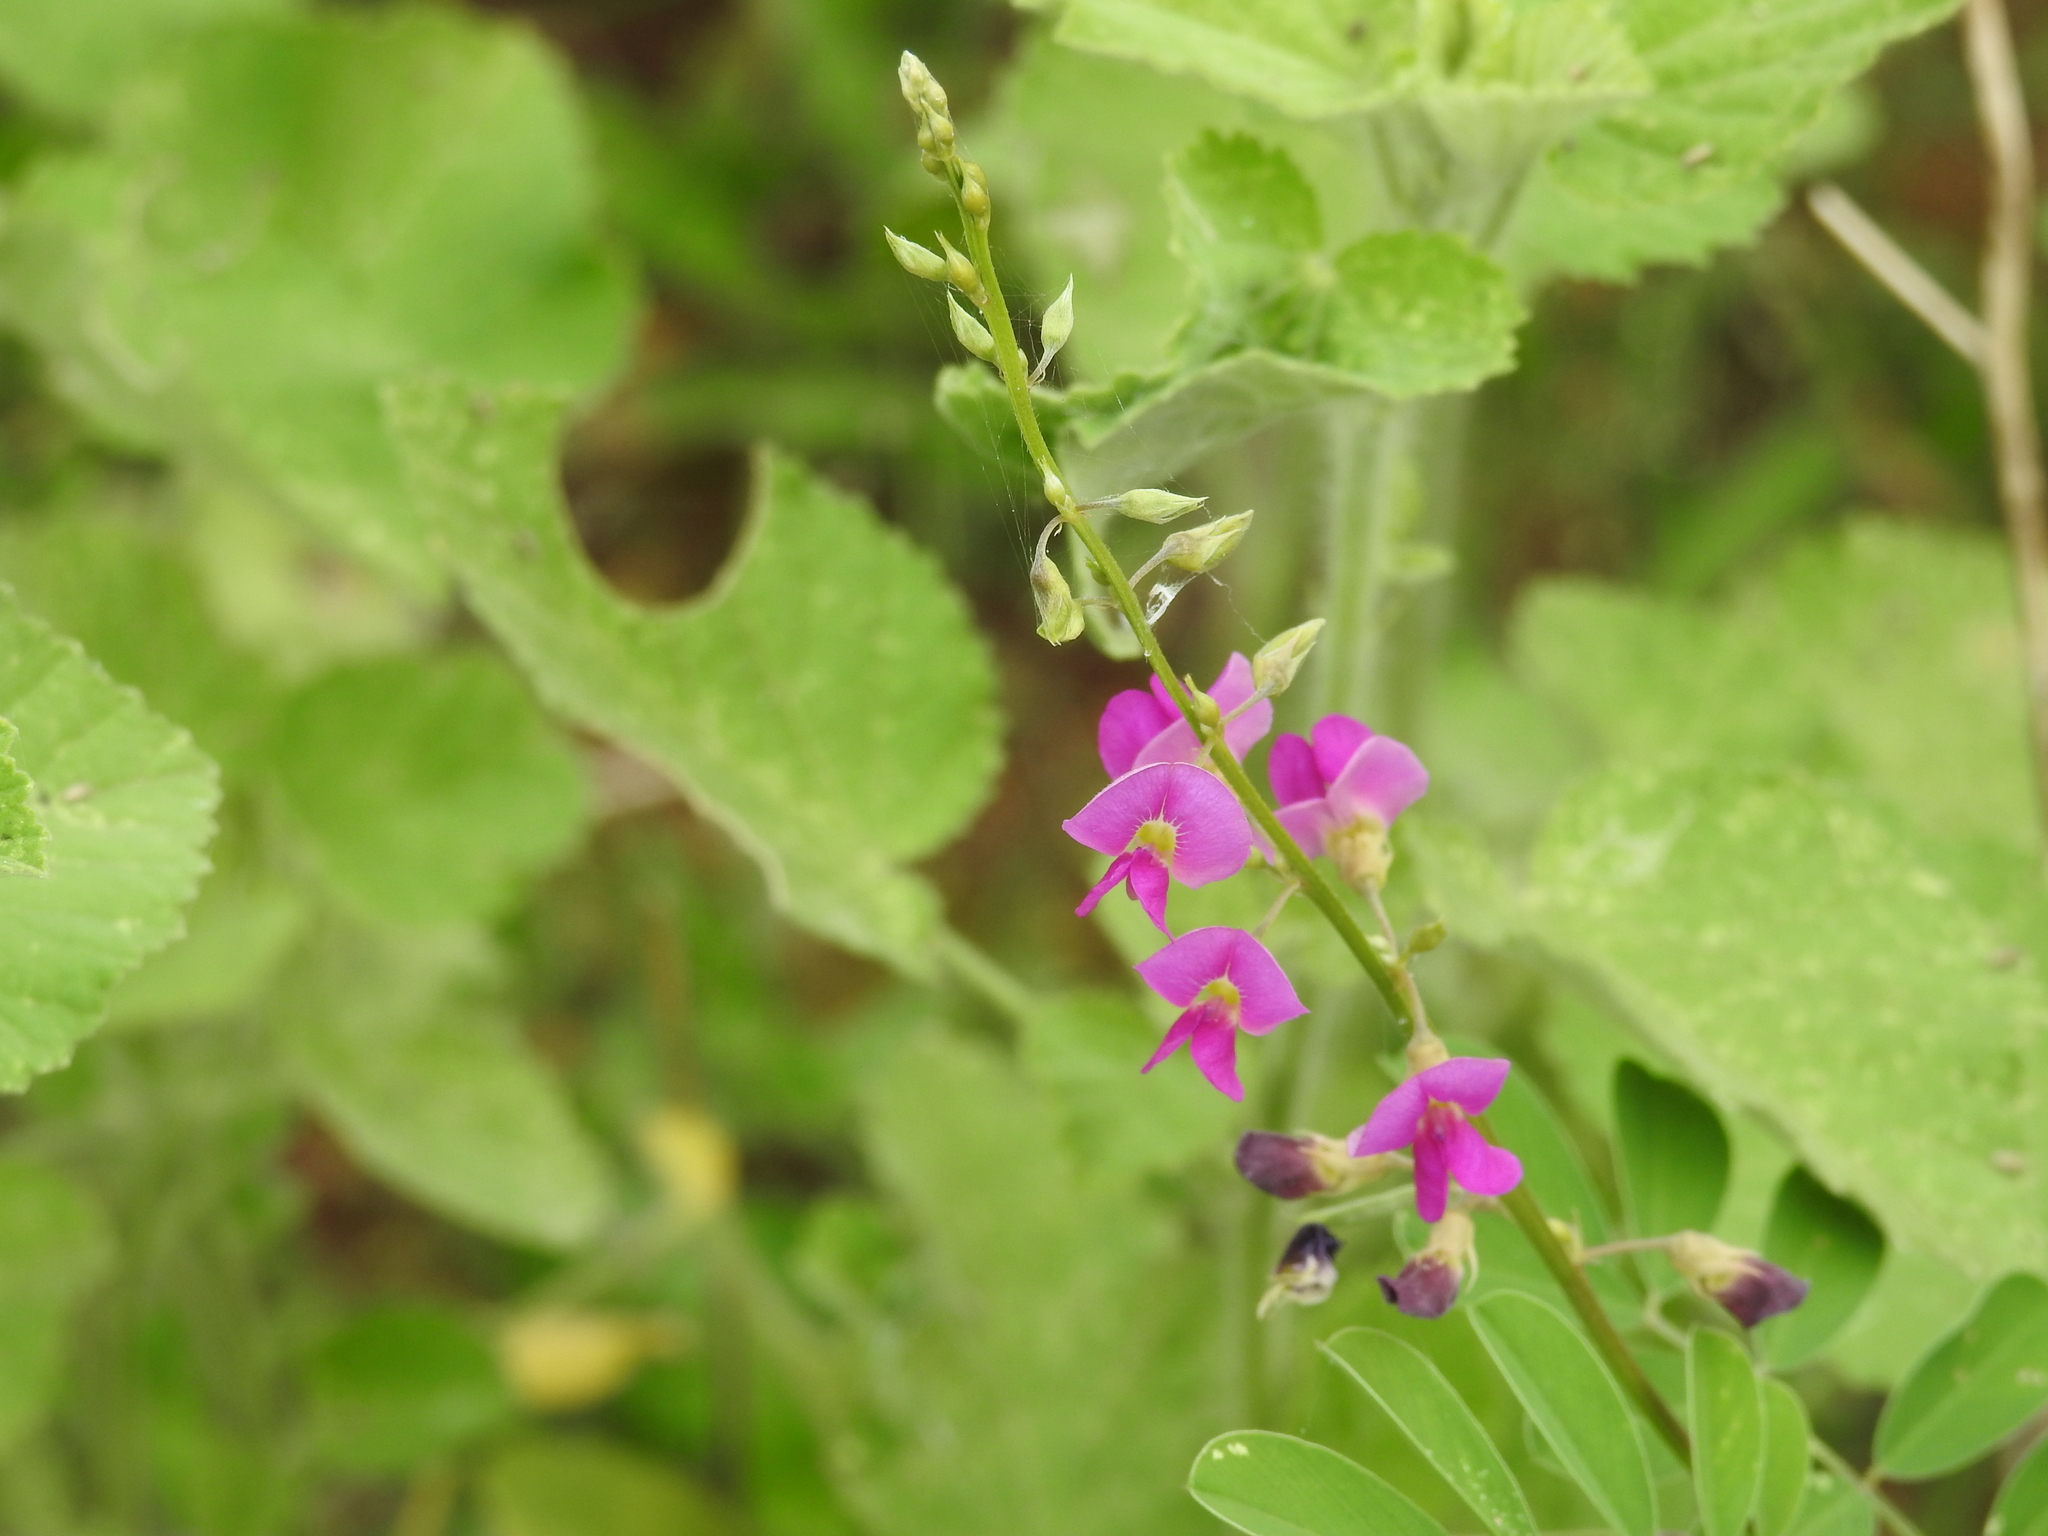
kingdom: Plantae
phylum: Tracheophyta
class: Magnoliopsida
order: Fabales
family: Fabaceae
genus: Tephrosia
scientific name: Tephrosia purpurea
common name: Fishpoison
